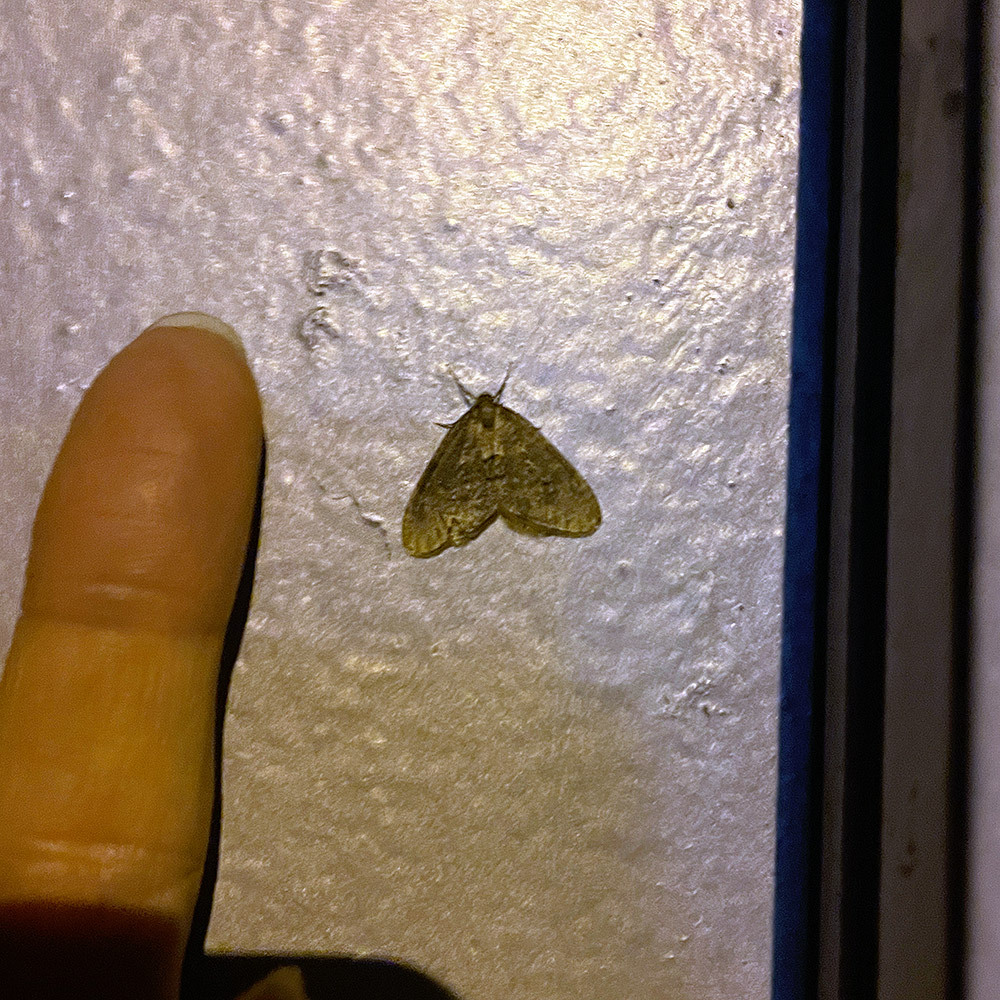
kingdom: Animalia
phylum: Arthropoda
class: Insecta
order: Lepidoptera
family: Geometridae
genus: Operophtera
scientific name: Operophtera brumata
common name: Winter moth
